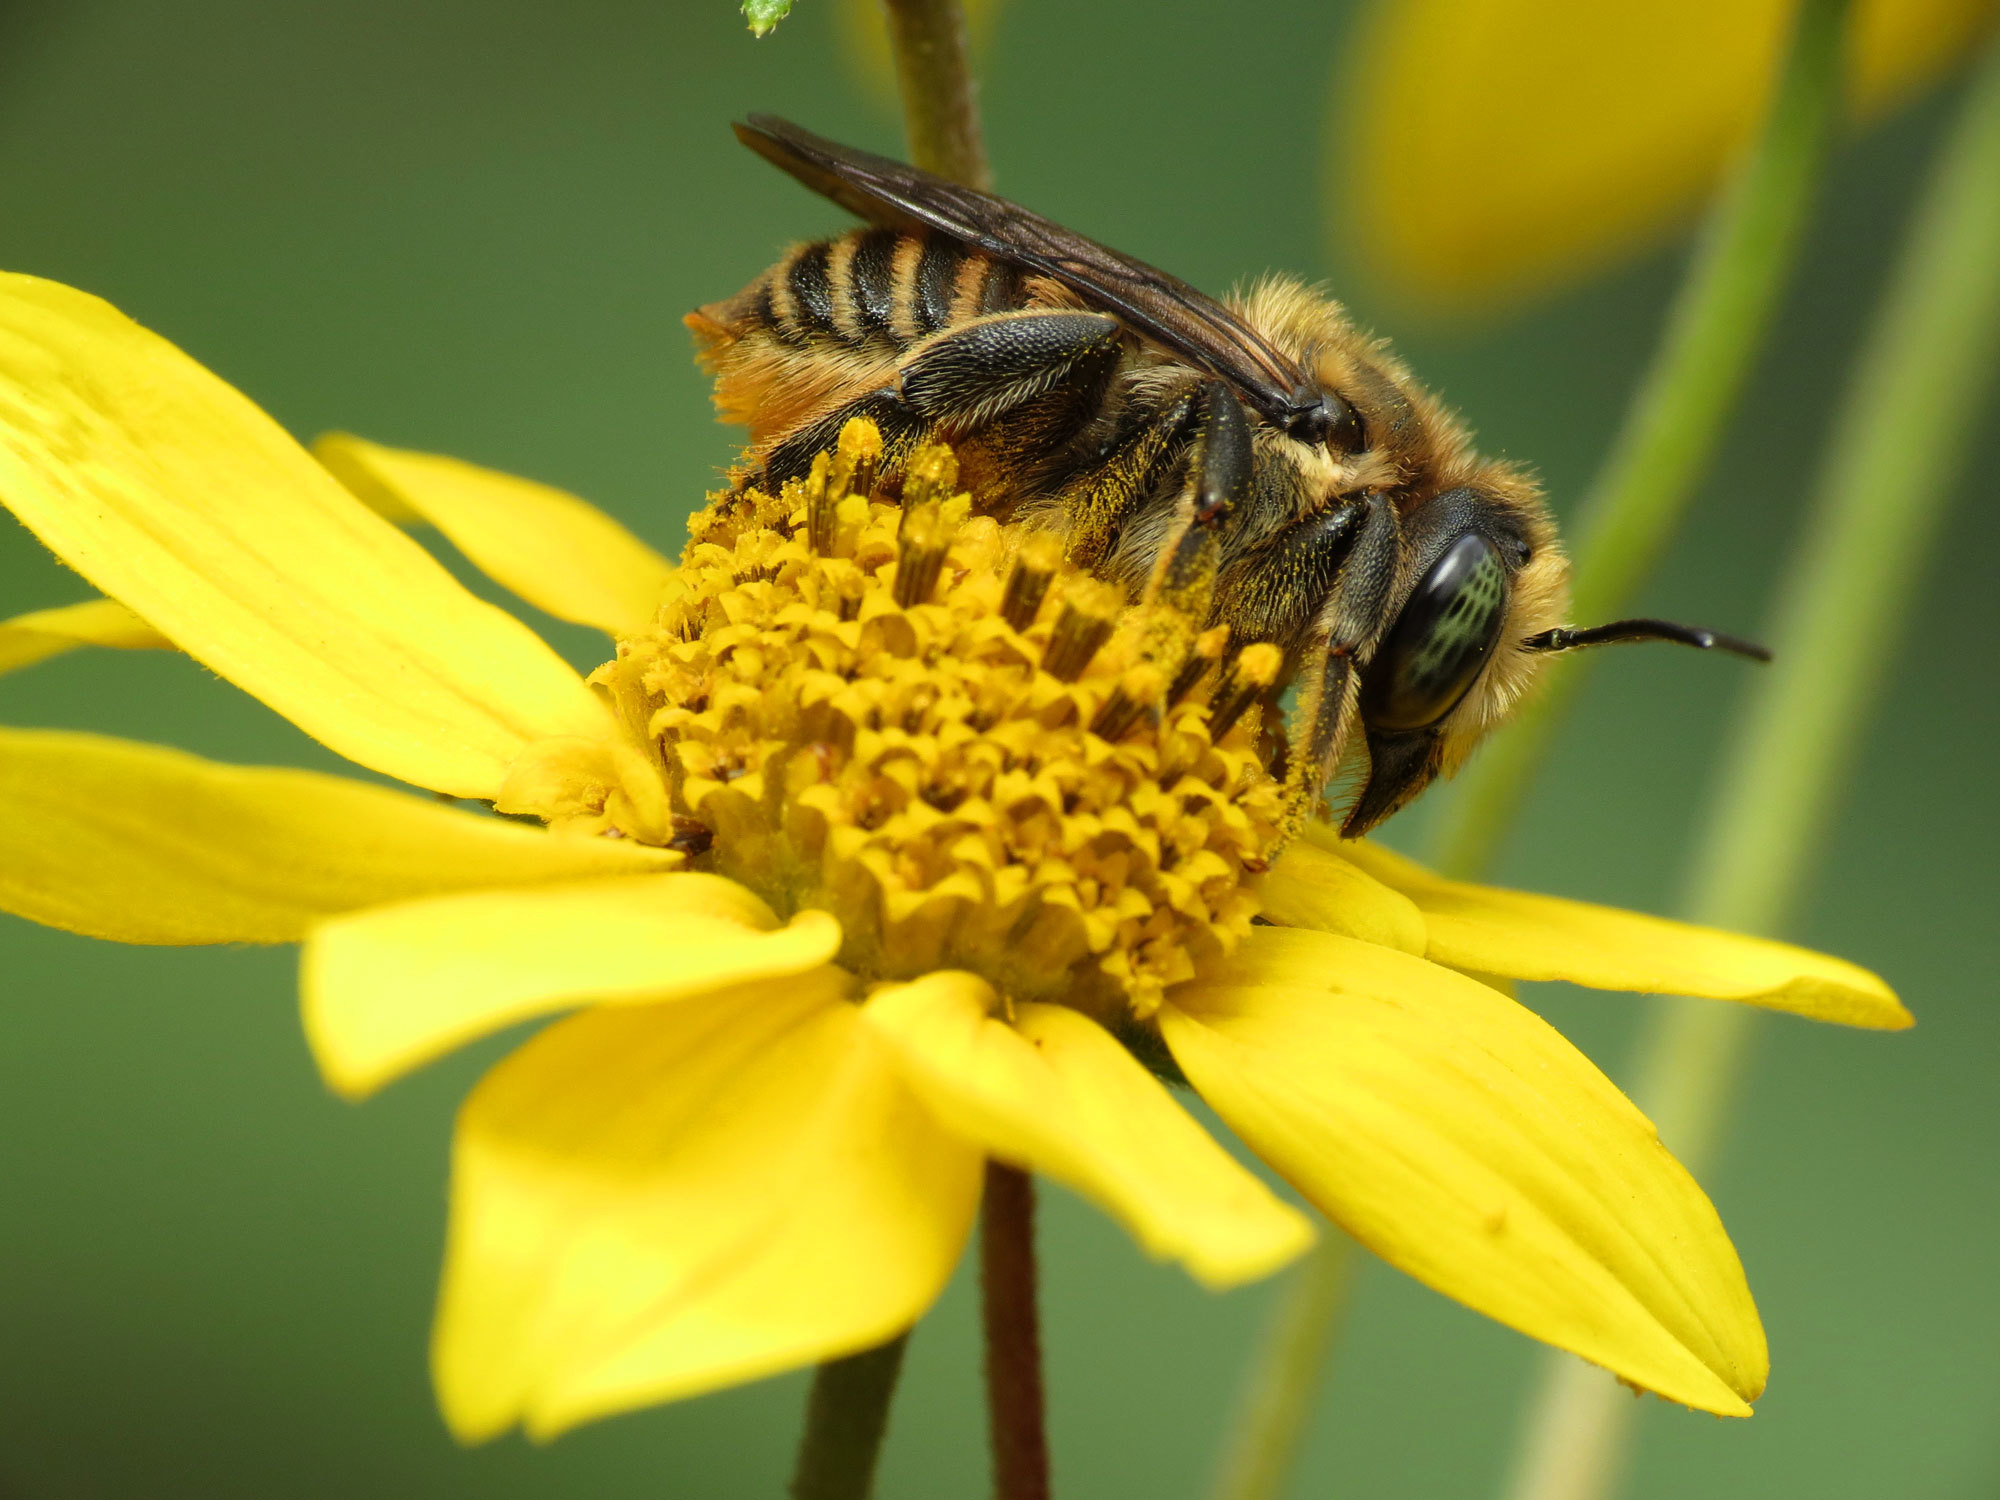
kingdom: Animalia
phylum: Arthropoda
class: Insecta
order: Hymenoptera
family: Megachilidae
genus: Megachile
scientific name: Megachile
